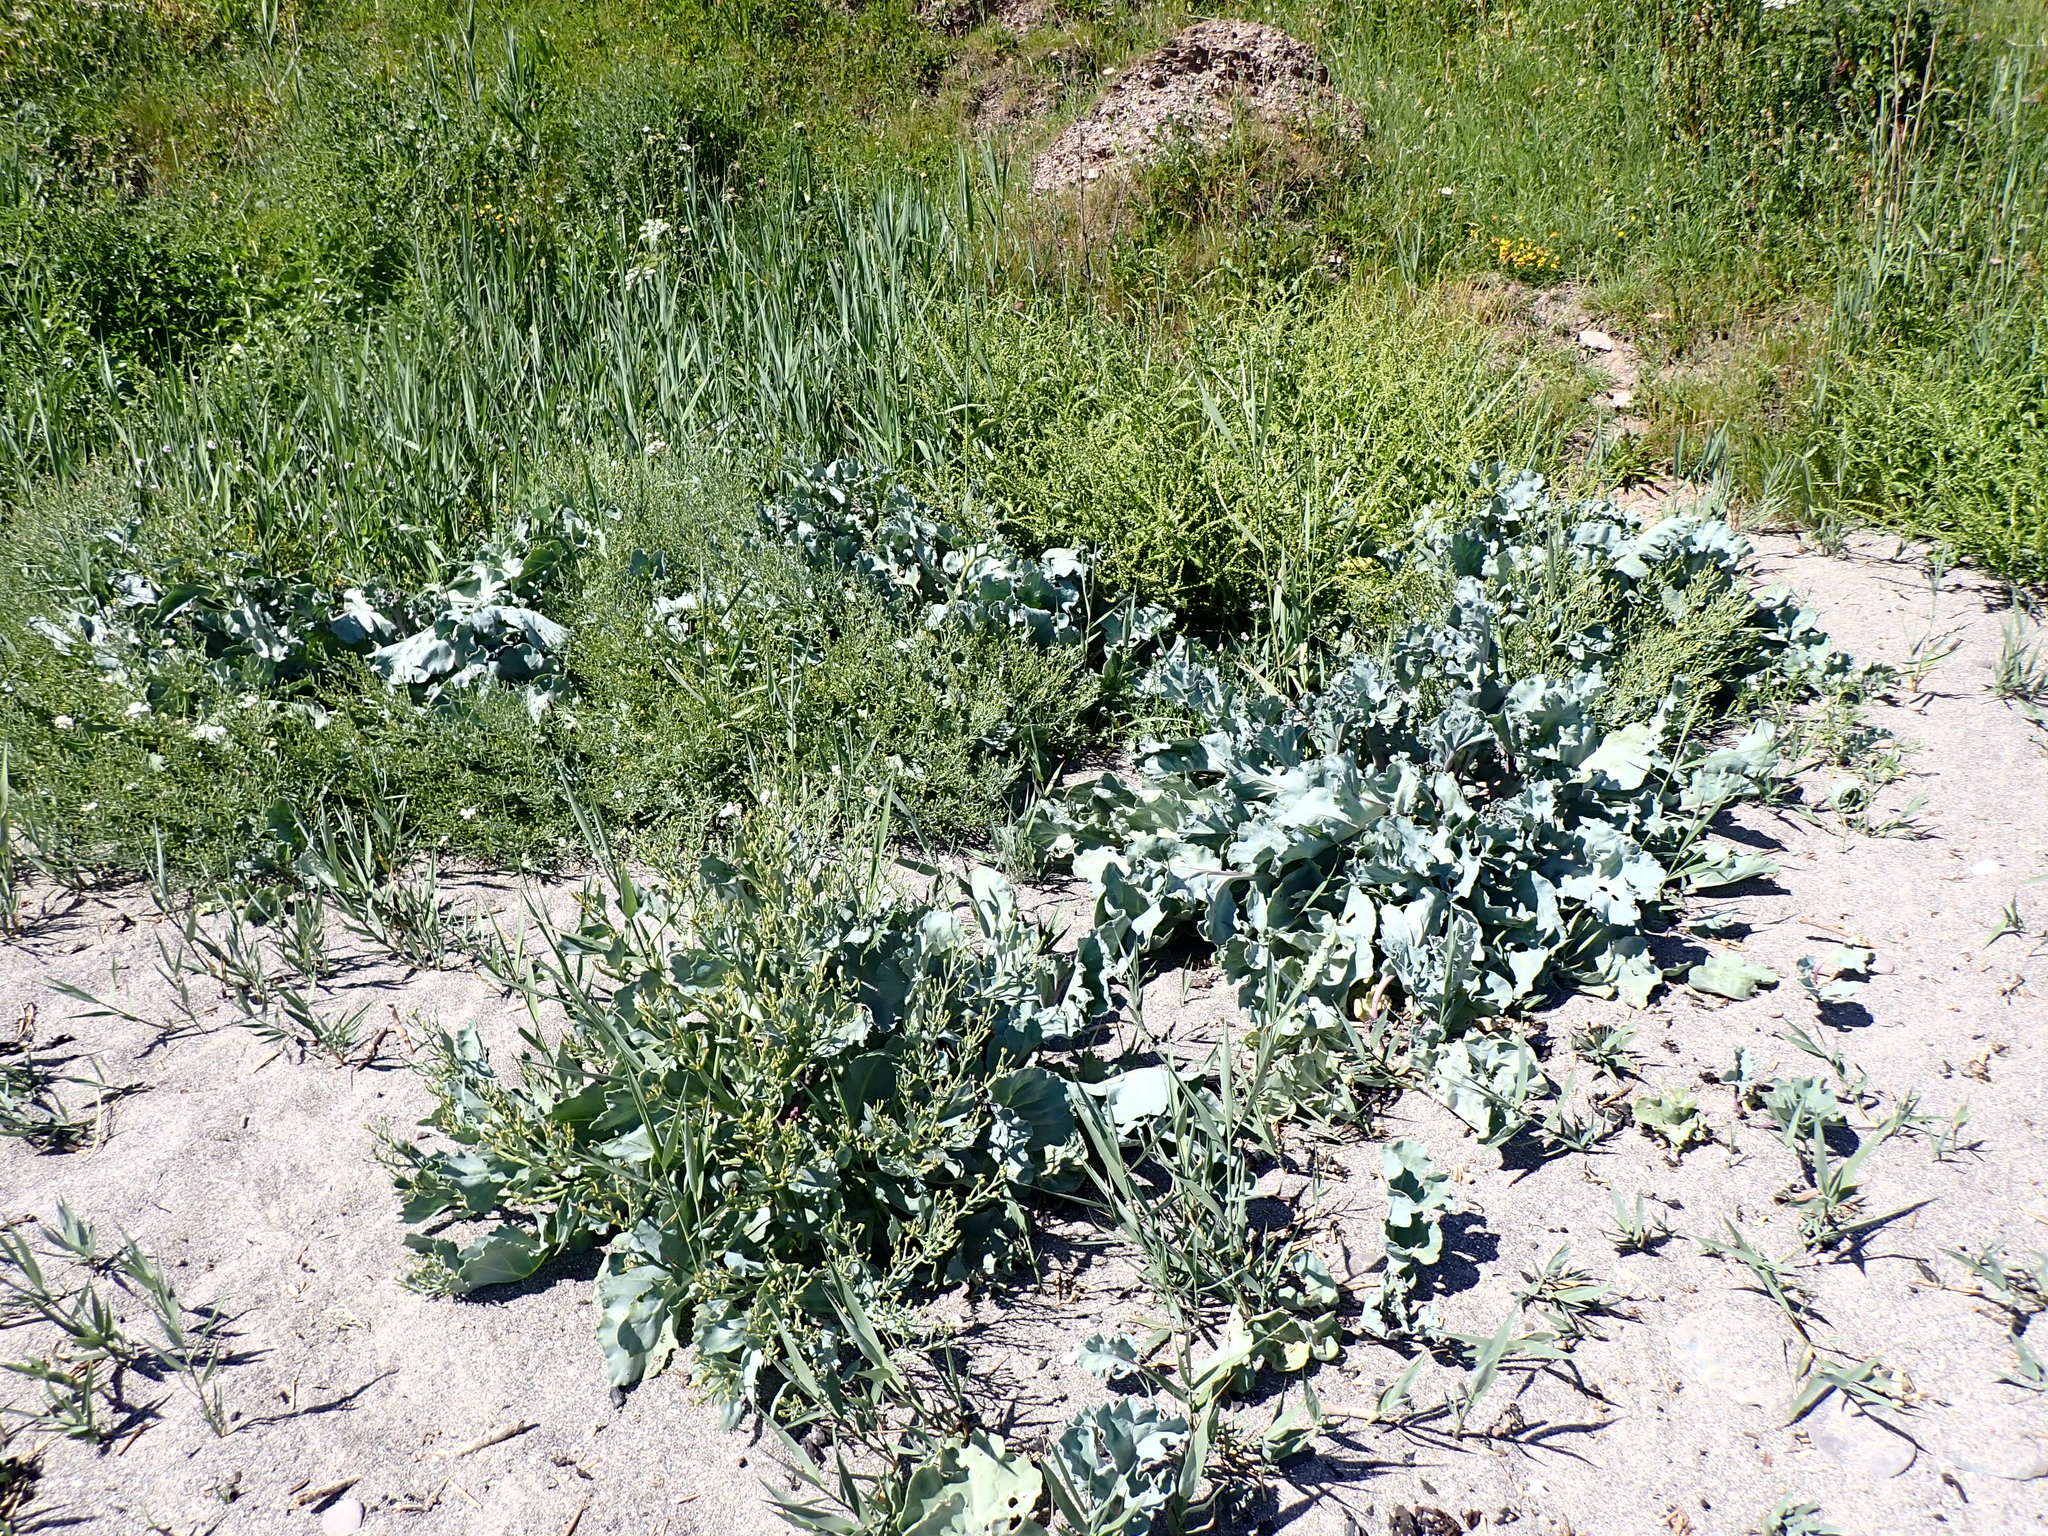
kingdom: Plantae
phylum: Tracheophyta
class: Magnoliopsida
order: Brassicales
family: Brassicaceae
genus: Crambe
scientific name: Crambe maritima
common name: Sea-kale
